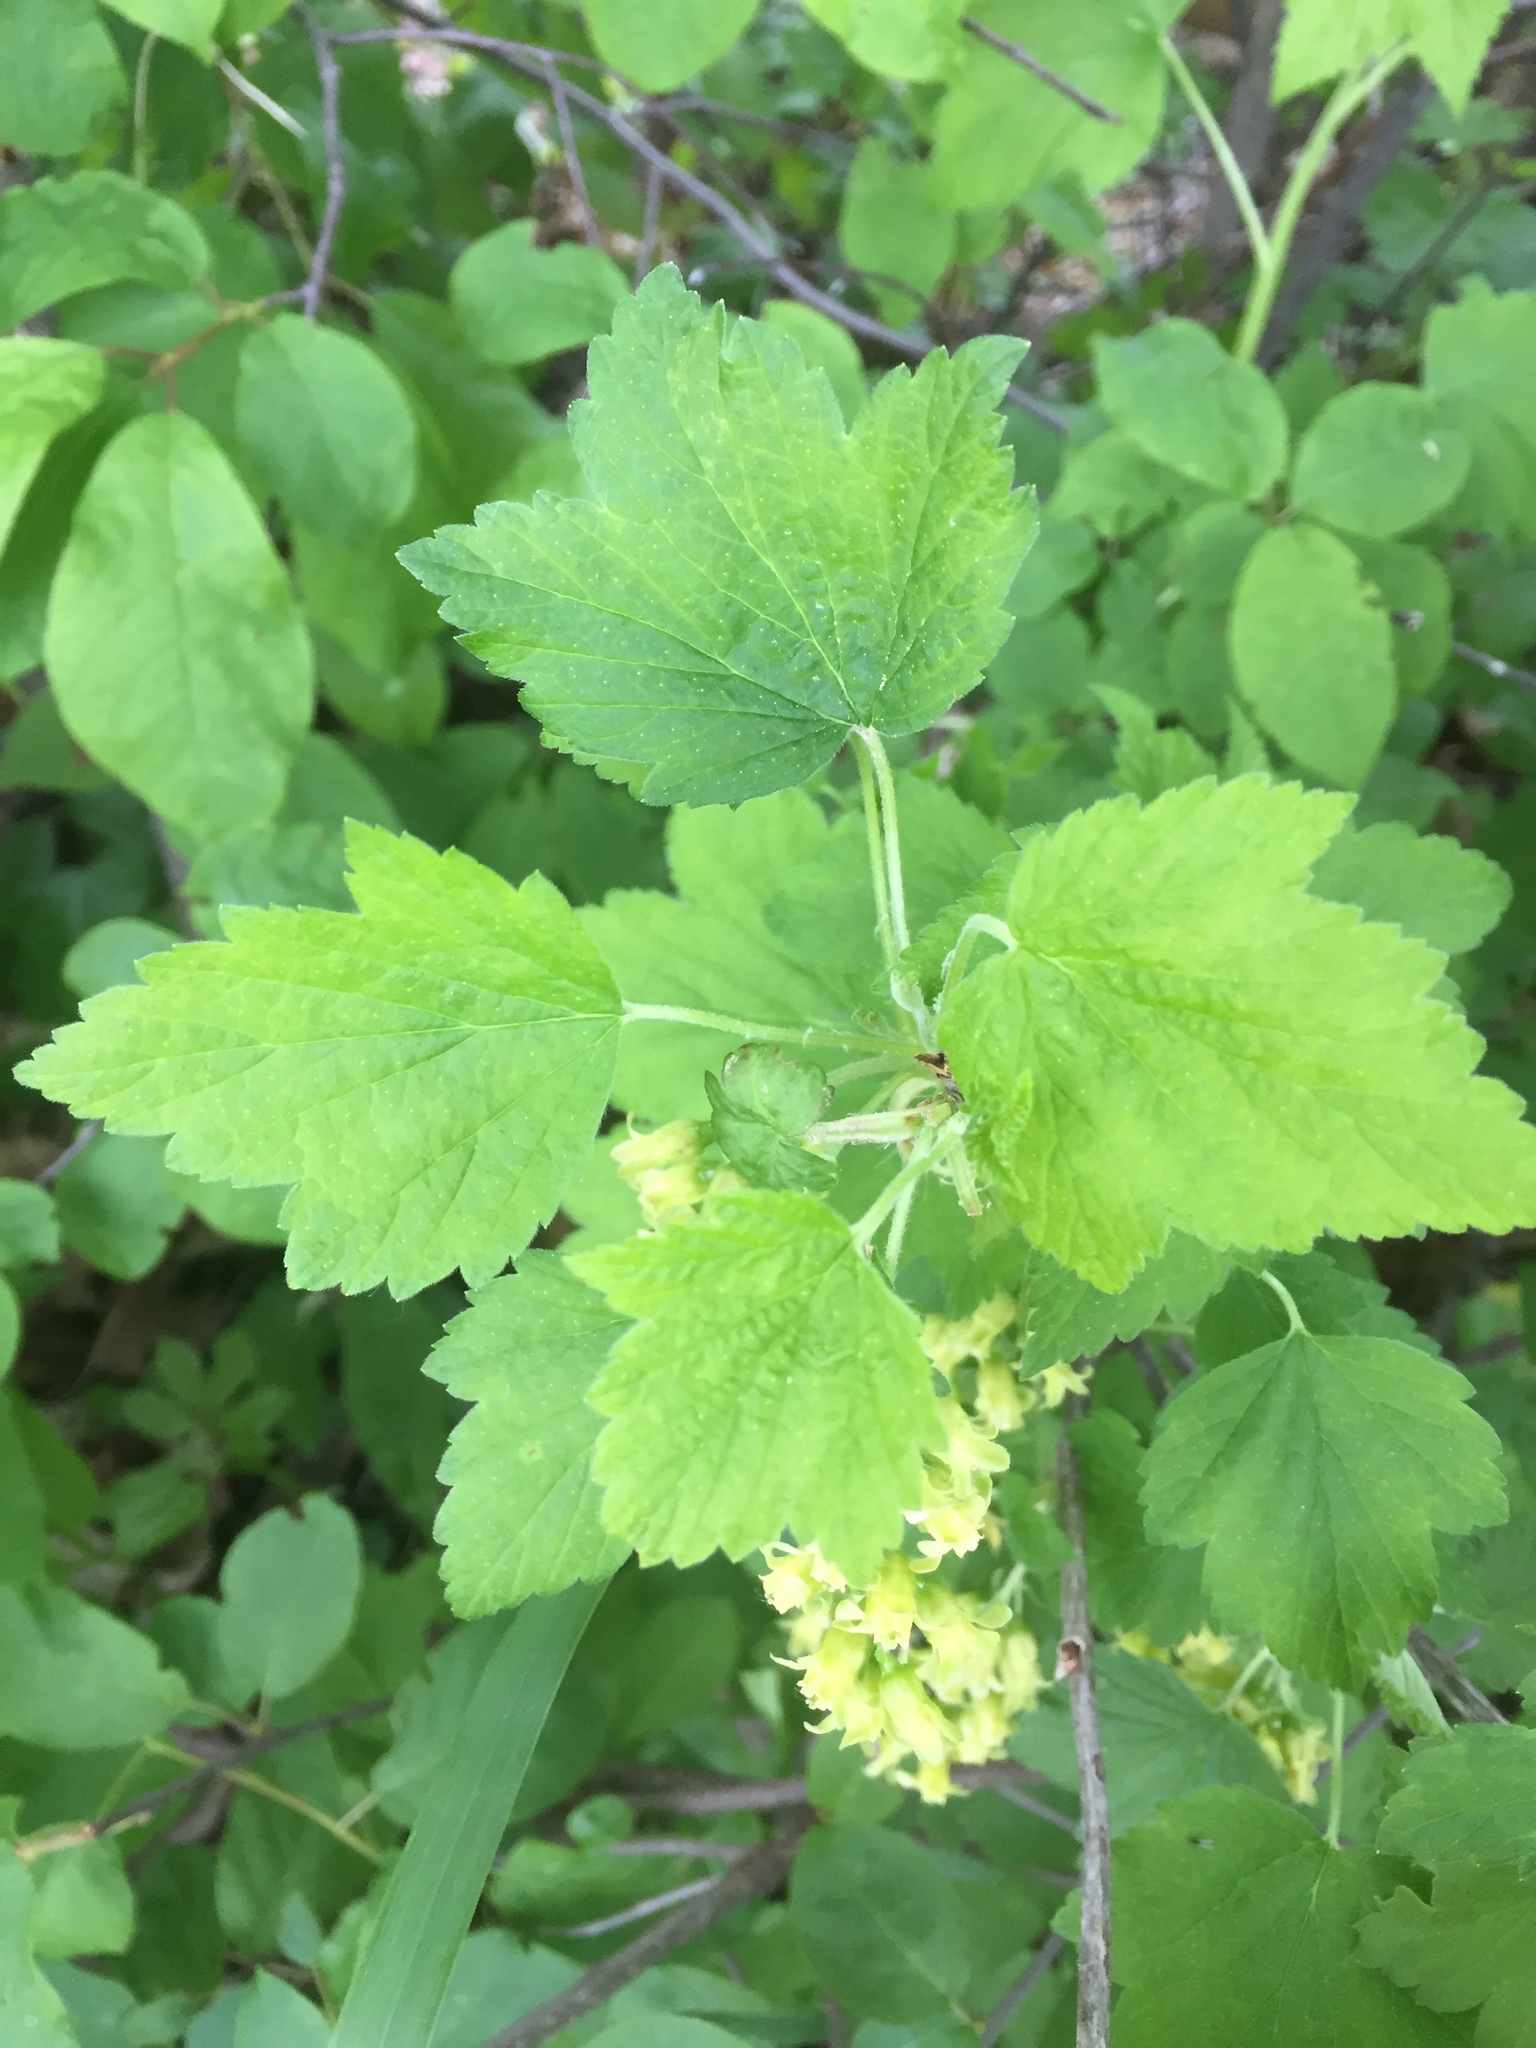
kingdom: Plantae
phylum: Tracheophyta
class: Magnoliopsida
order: Saxifragales
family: Grossulariaceae
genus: Ribes
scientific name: Ribes americanum
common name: American black currant
